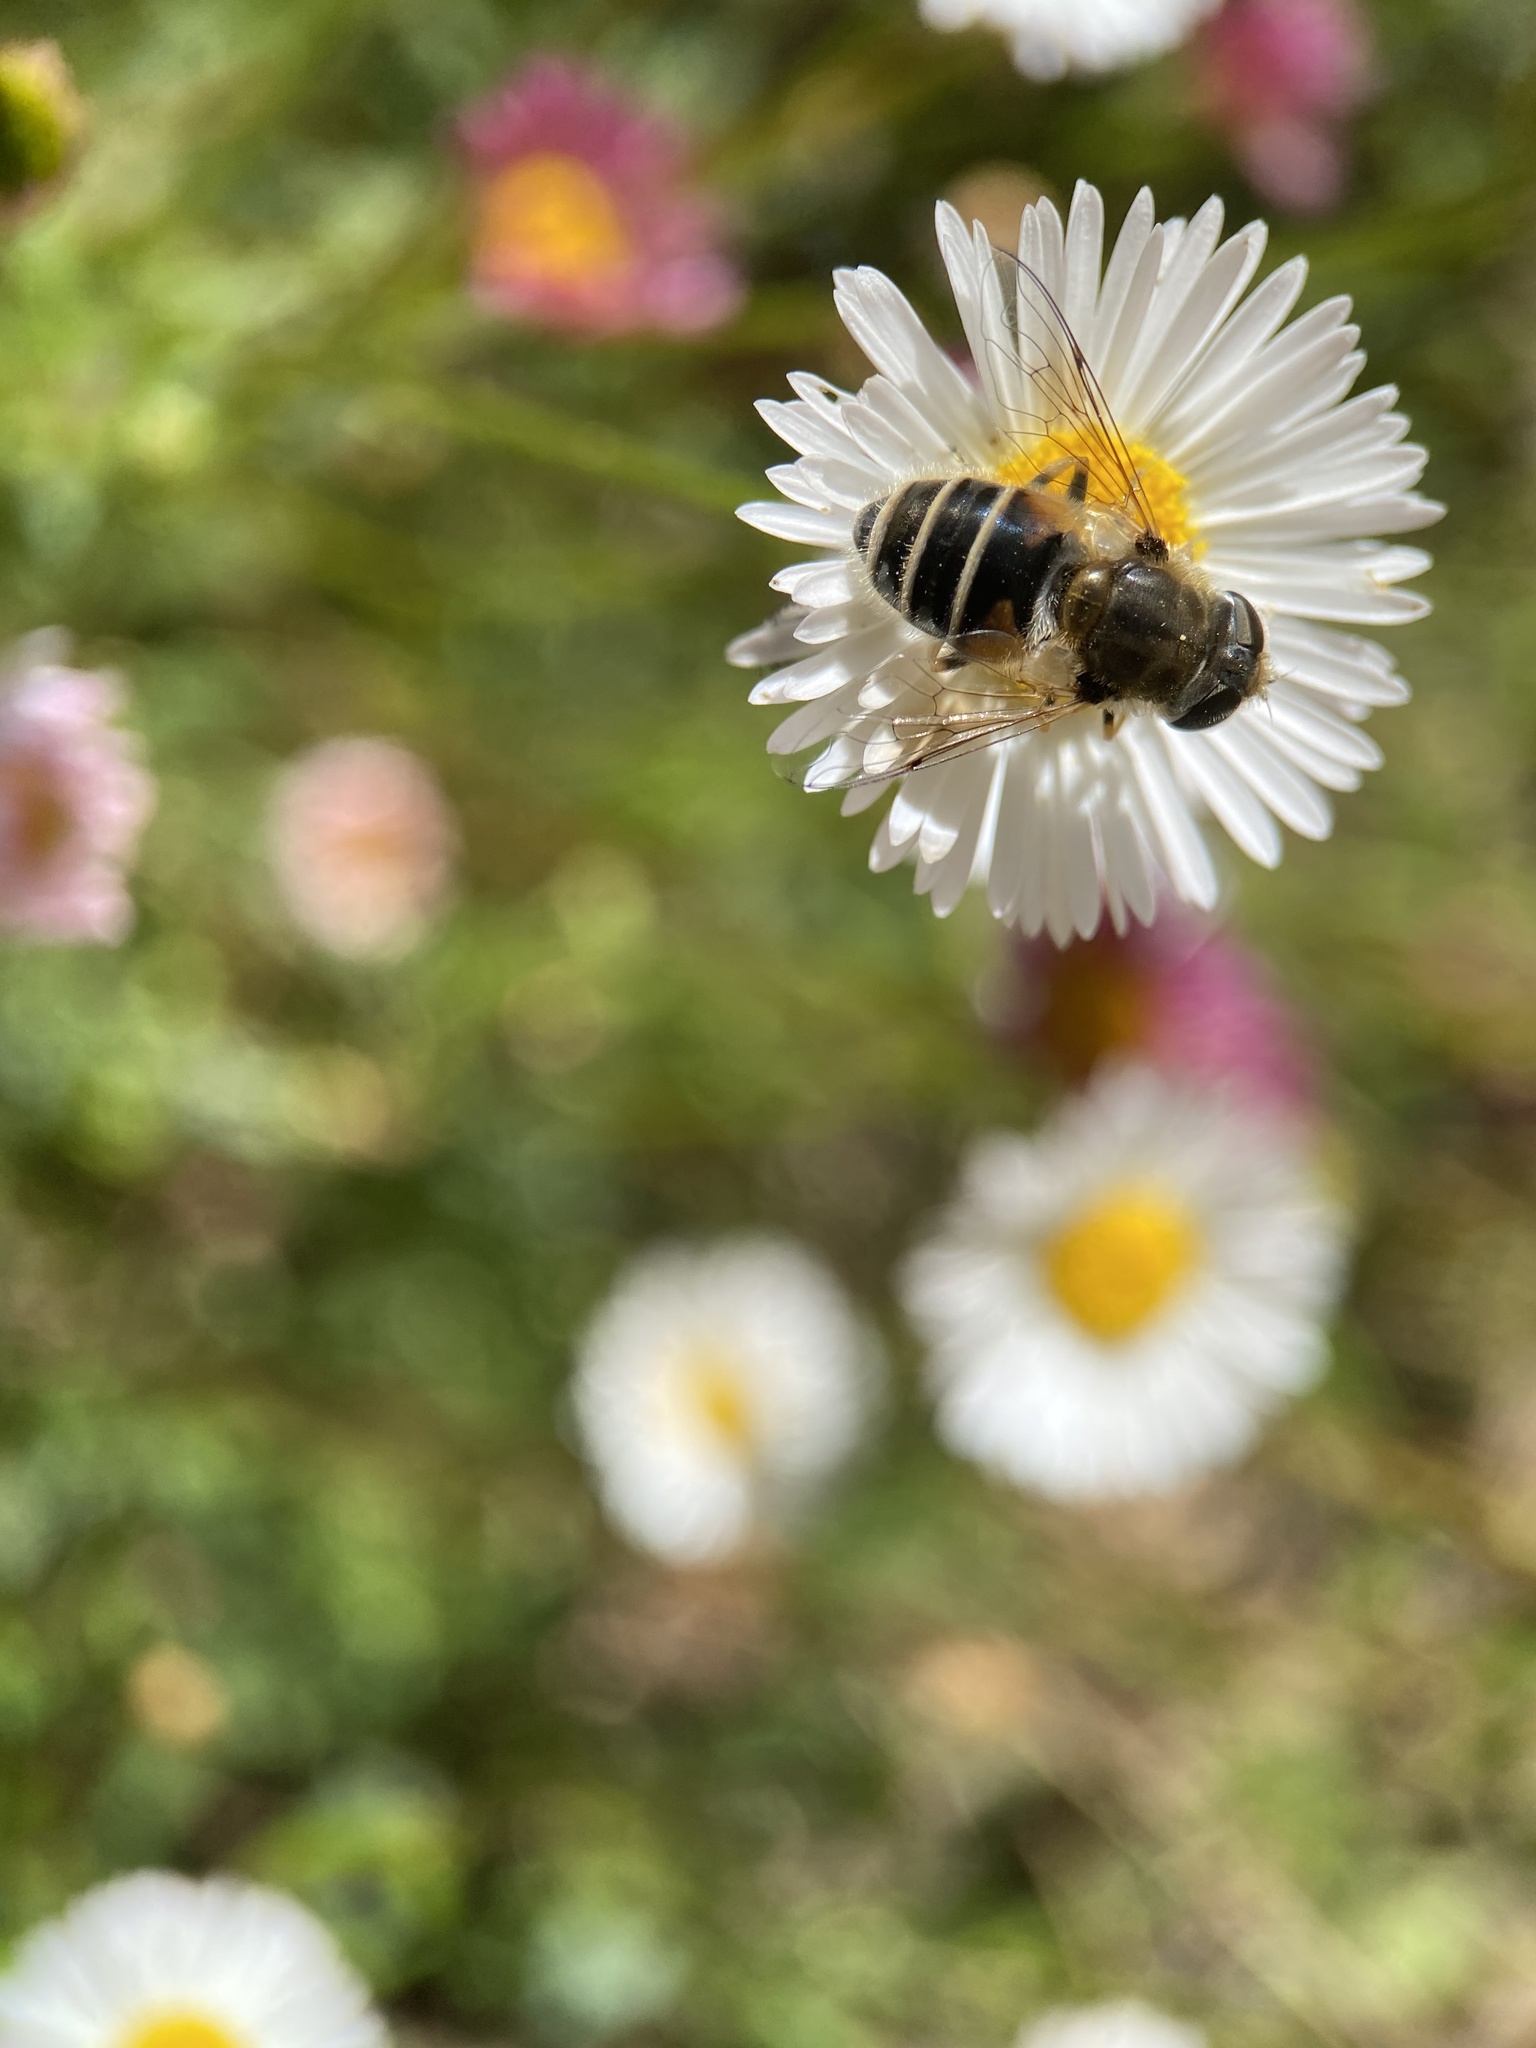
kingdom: Animalia
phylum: Arthropoda
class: Insecta
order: Diptera
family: Syrphidae
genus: Eristalis
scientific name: Eristalis arbustorum
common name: Hover fly
